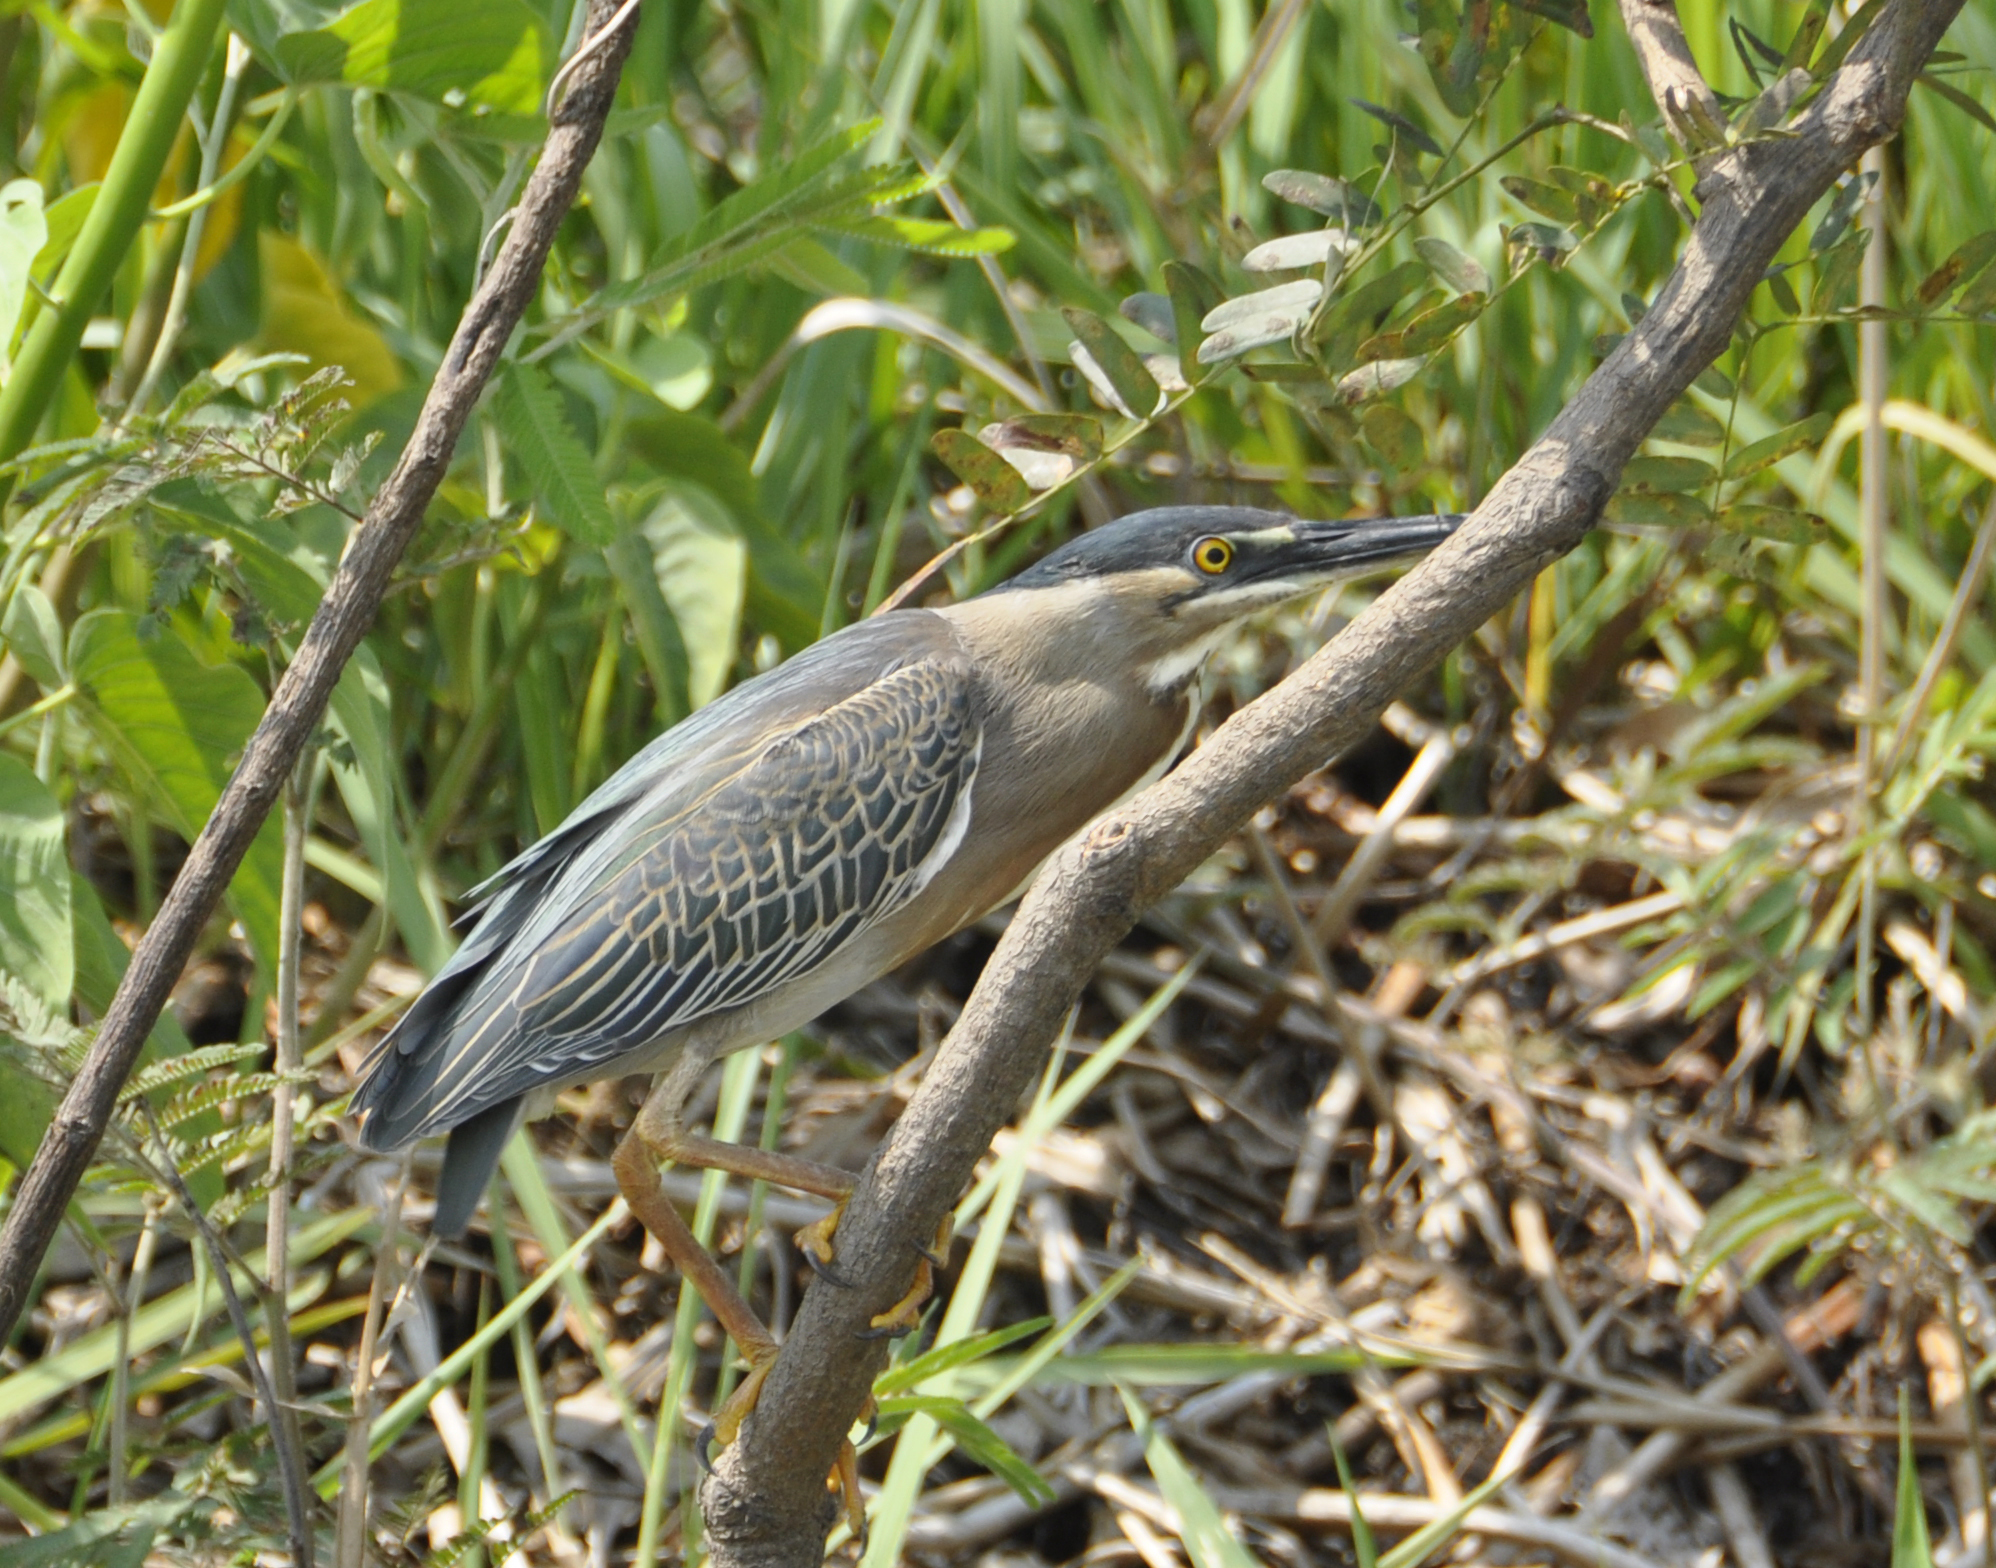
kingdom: Animalia
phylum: Chordata
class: Aves
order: Pelecaniformes
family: Ardeidae
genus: Butorides
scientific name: Butorides striata
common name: Striated heron
